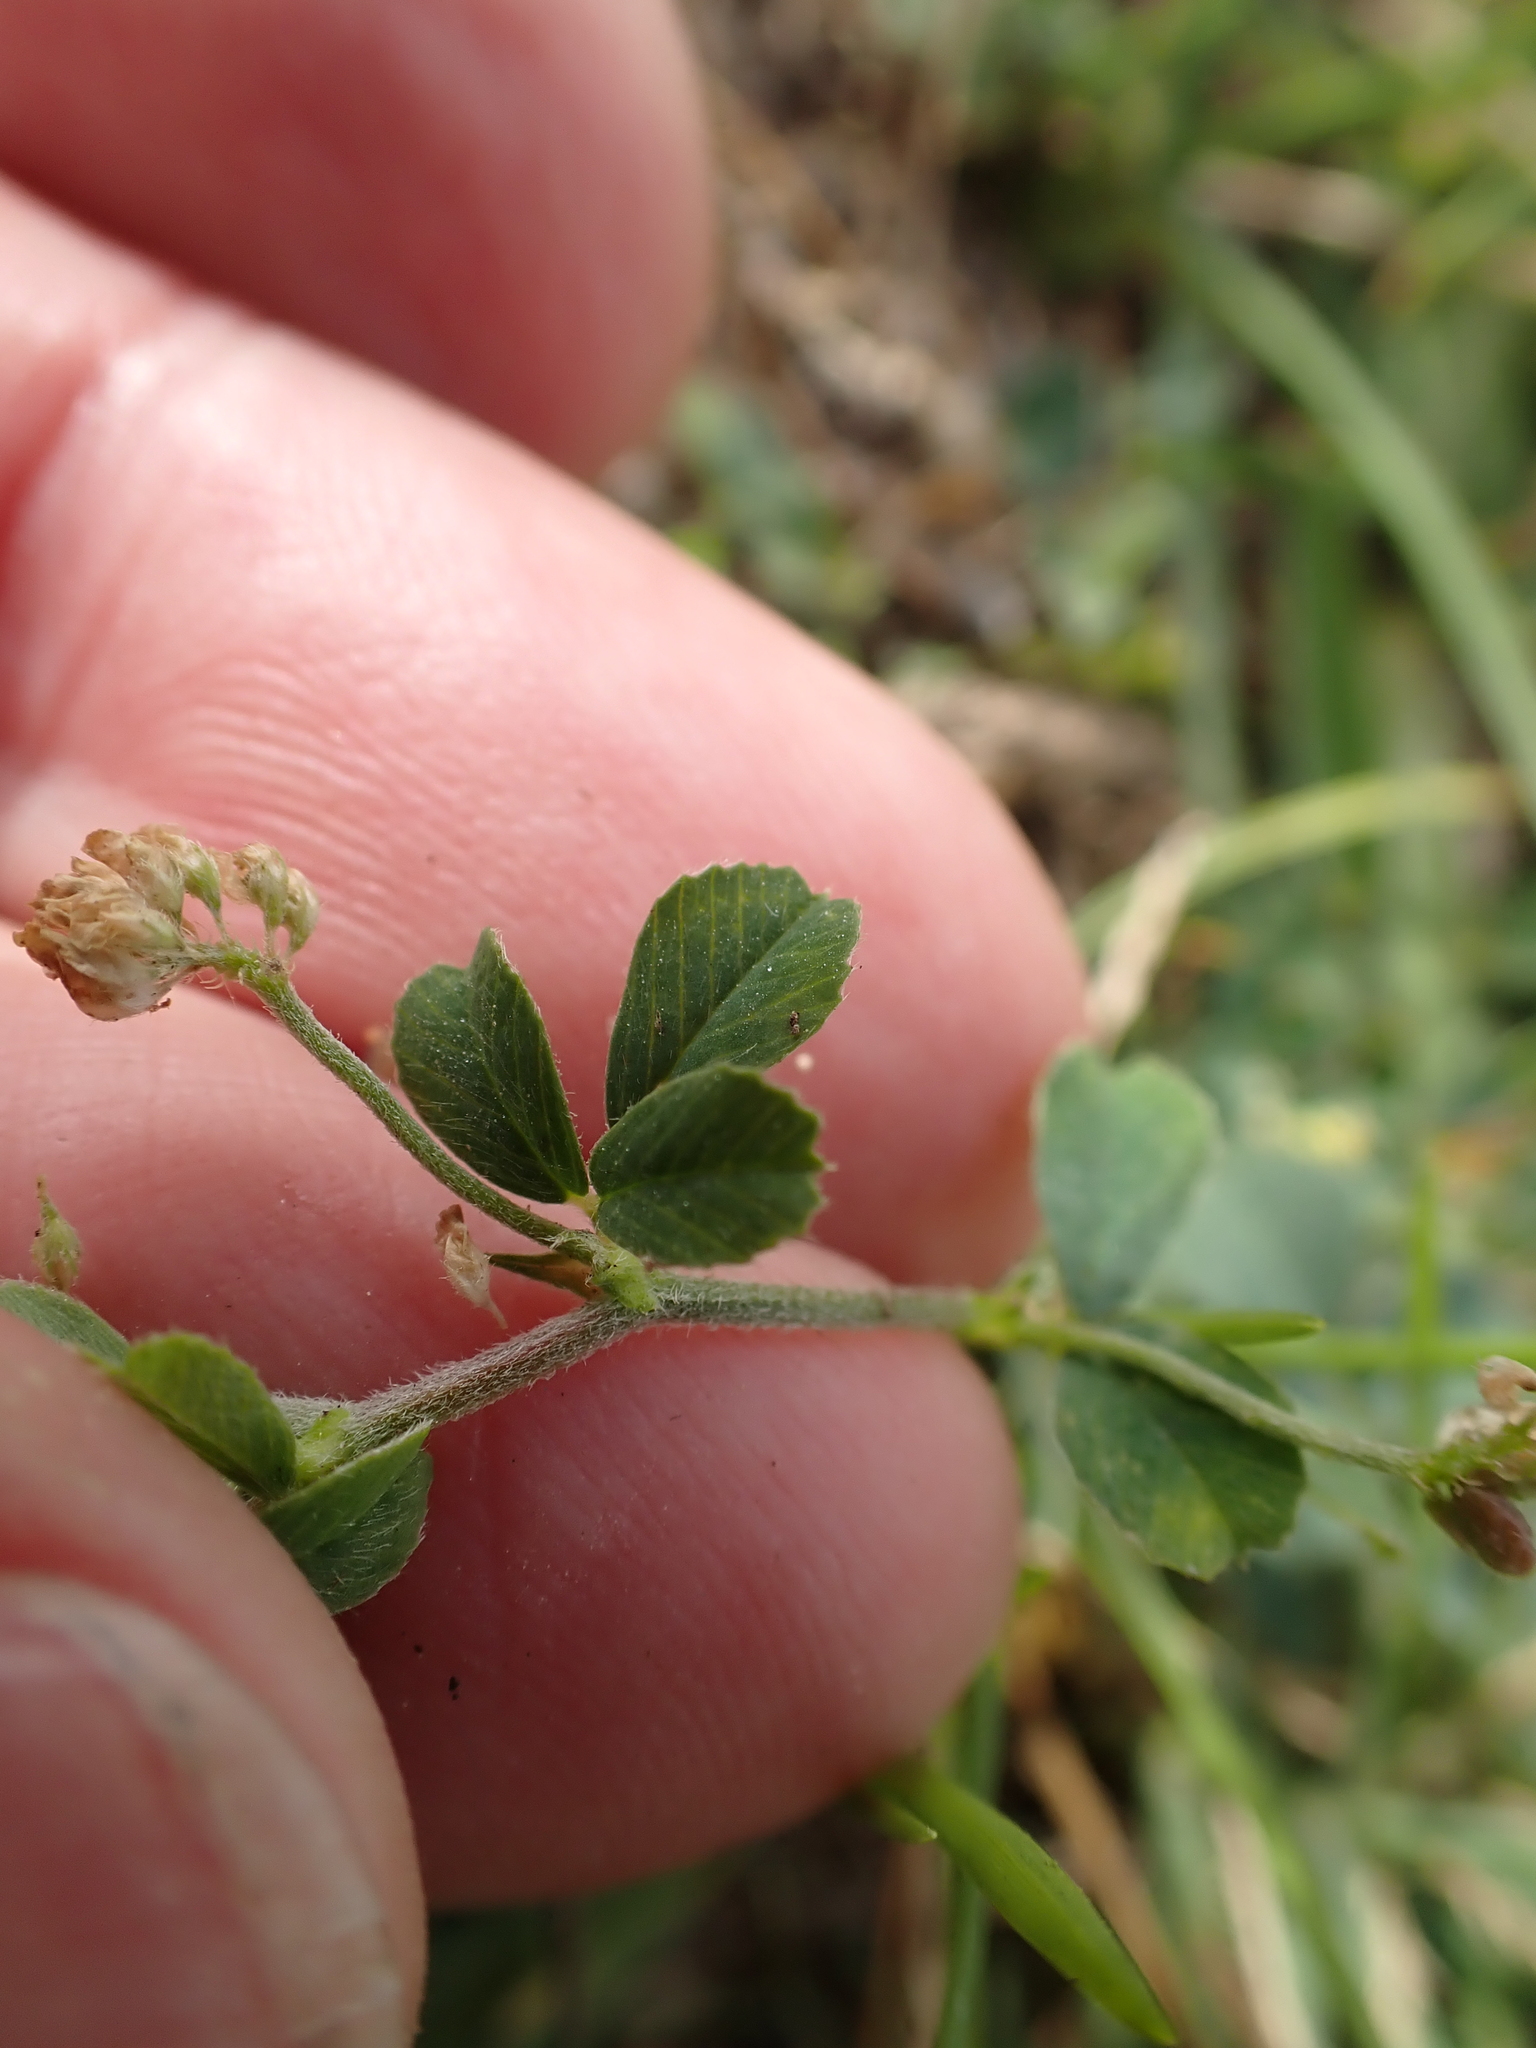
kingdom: Plantae
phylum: Tracheophyta
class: Magnoliopsida
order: Fabales
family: Fabaceae
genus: Medicago
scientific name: Medicago lupulina
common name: Black medick
